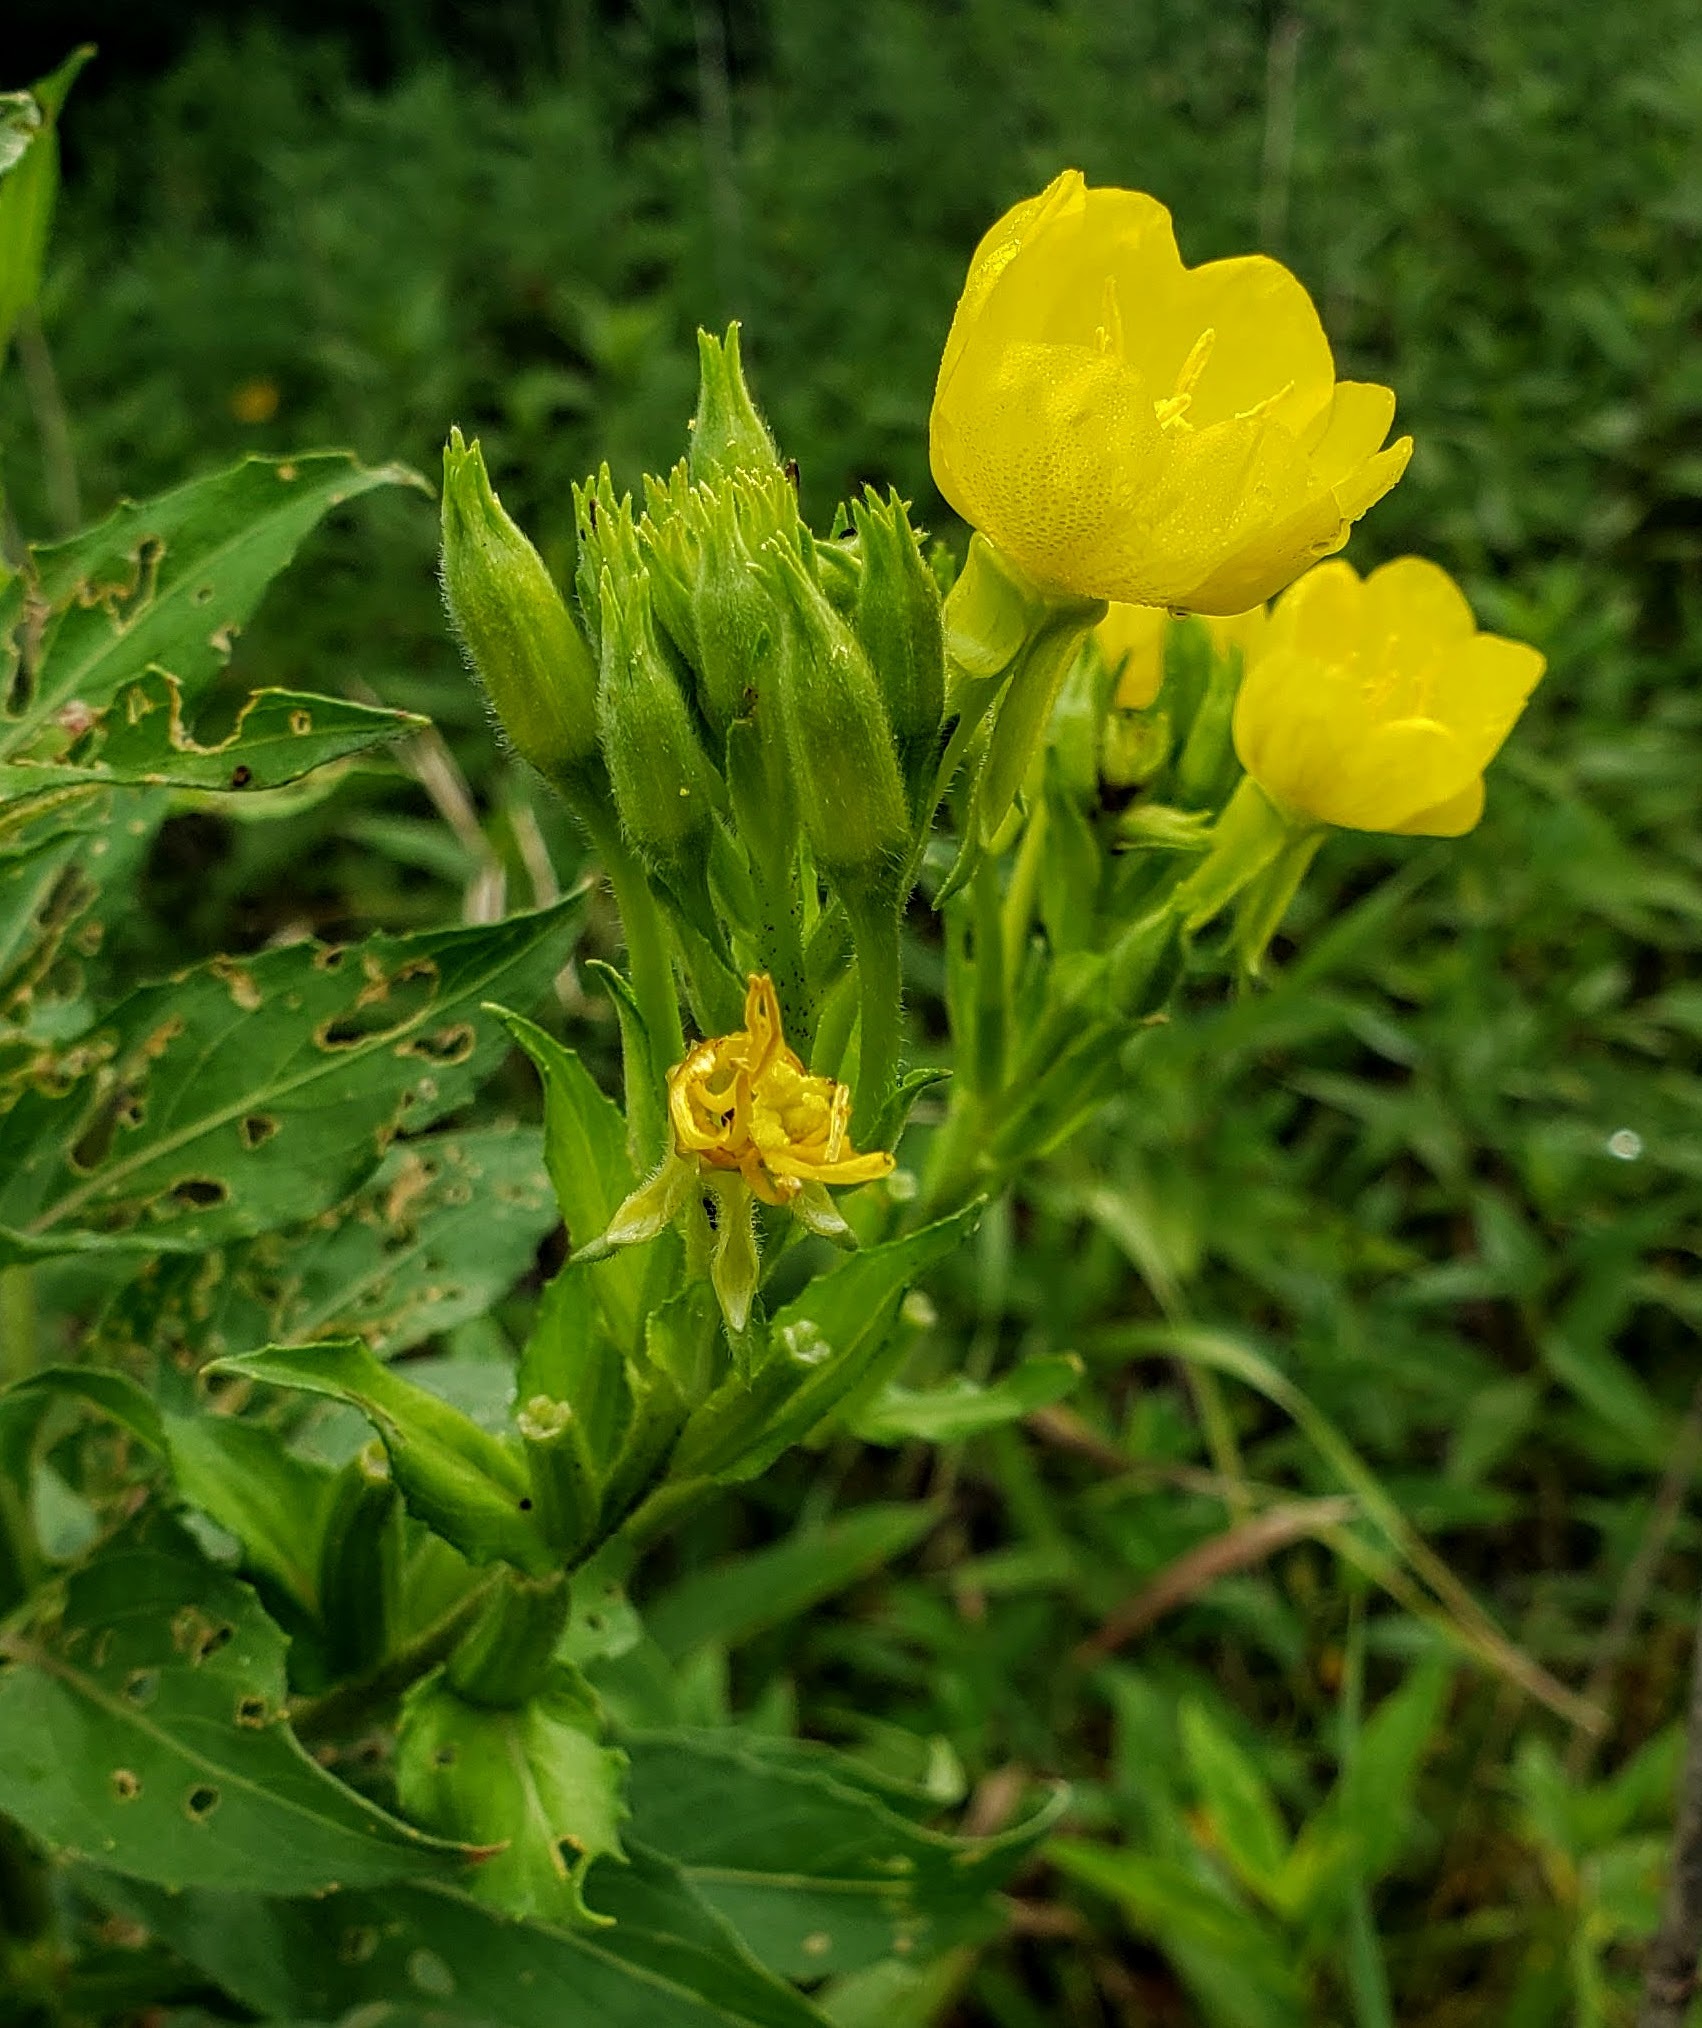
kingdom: Plantae
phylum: Tracheophyta
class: Magnoliopsida
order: Myrtales
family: Onagraceae
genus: Oenothera
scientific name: Oenothera biennis
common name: Common evening-primrose
